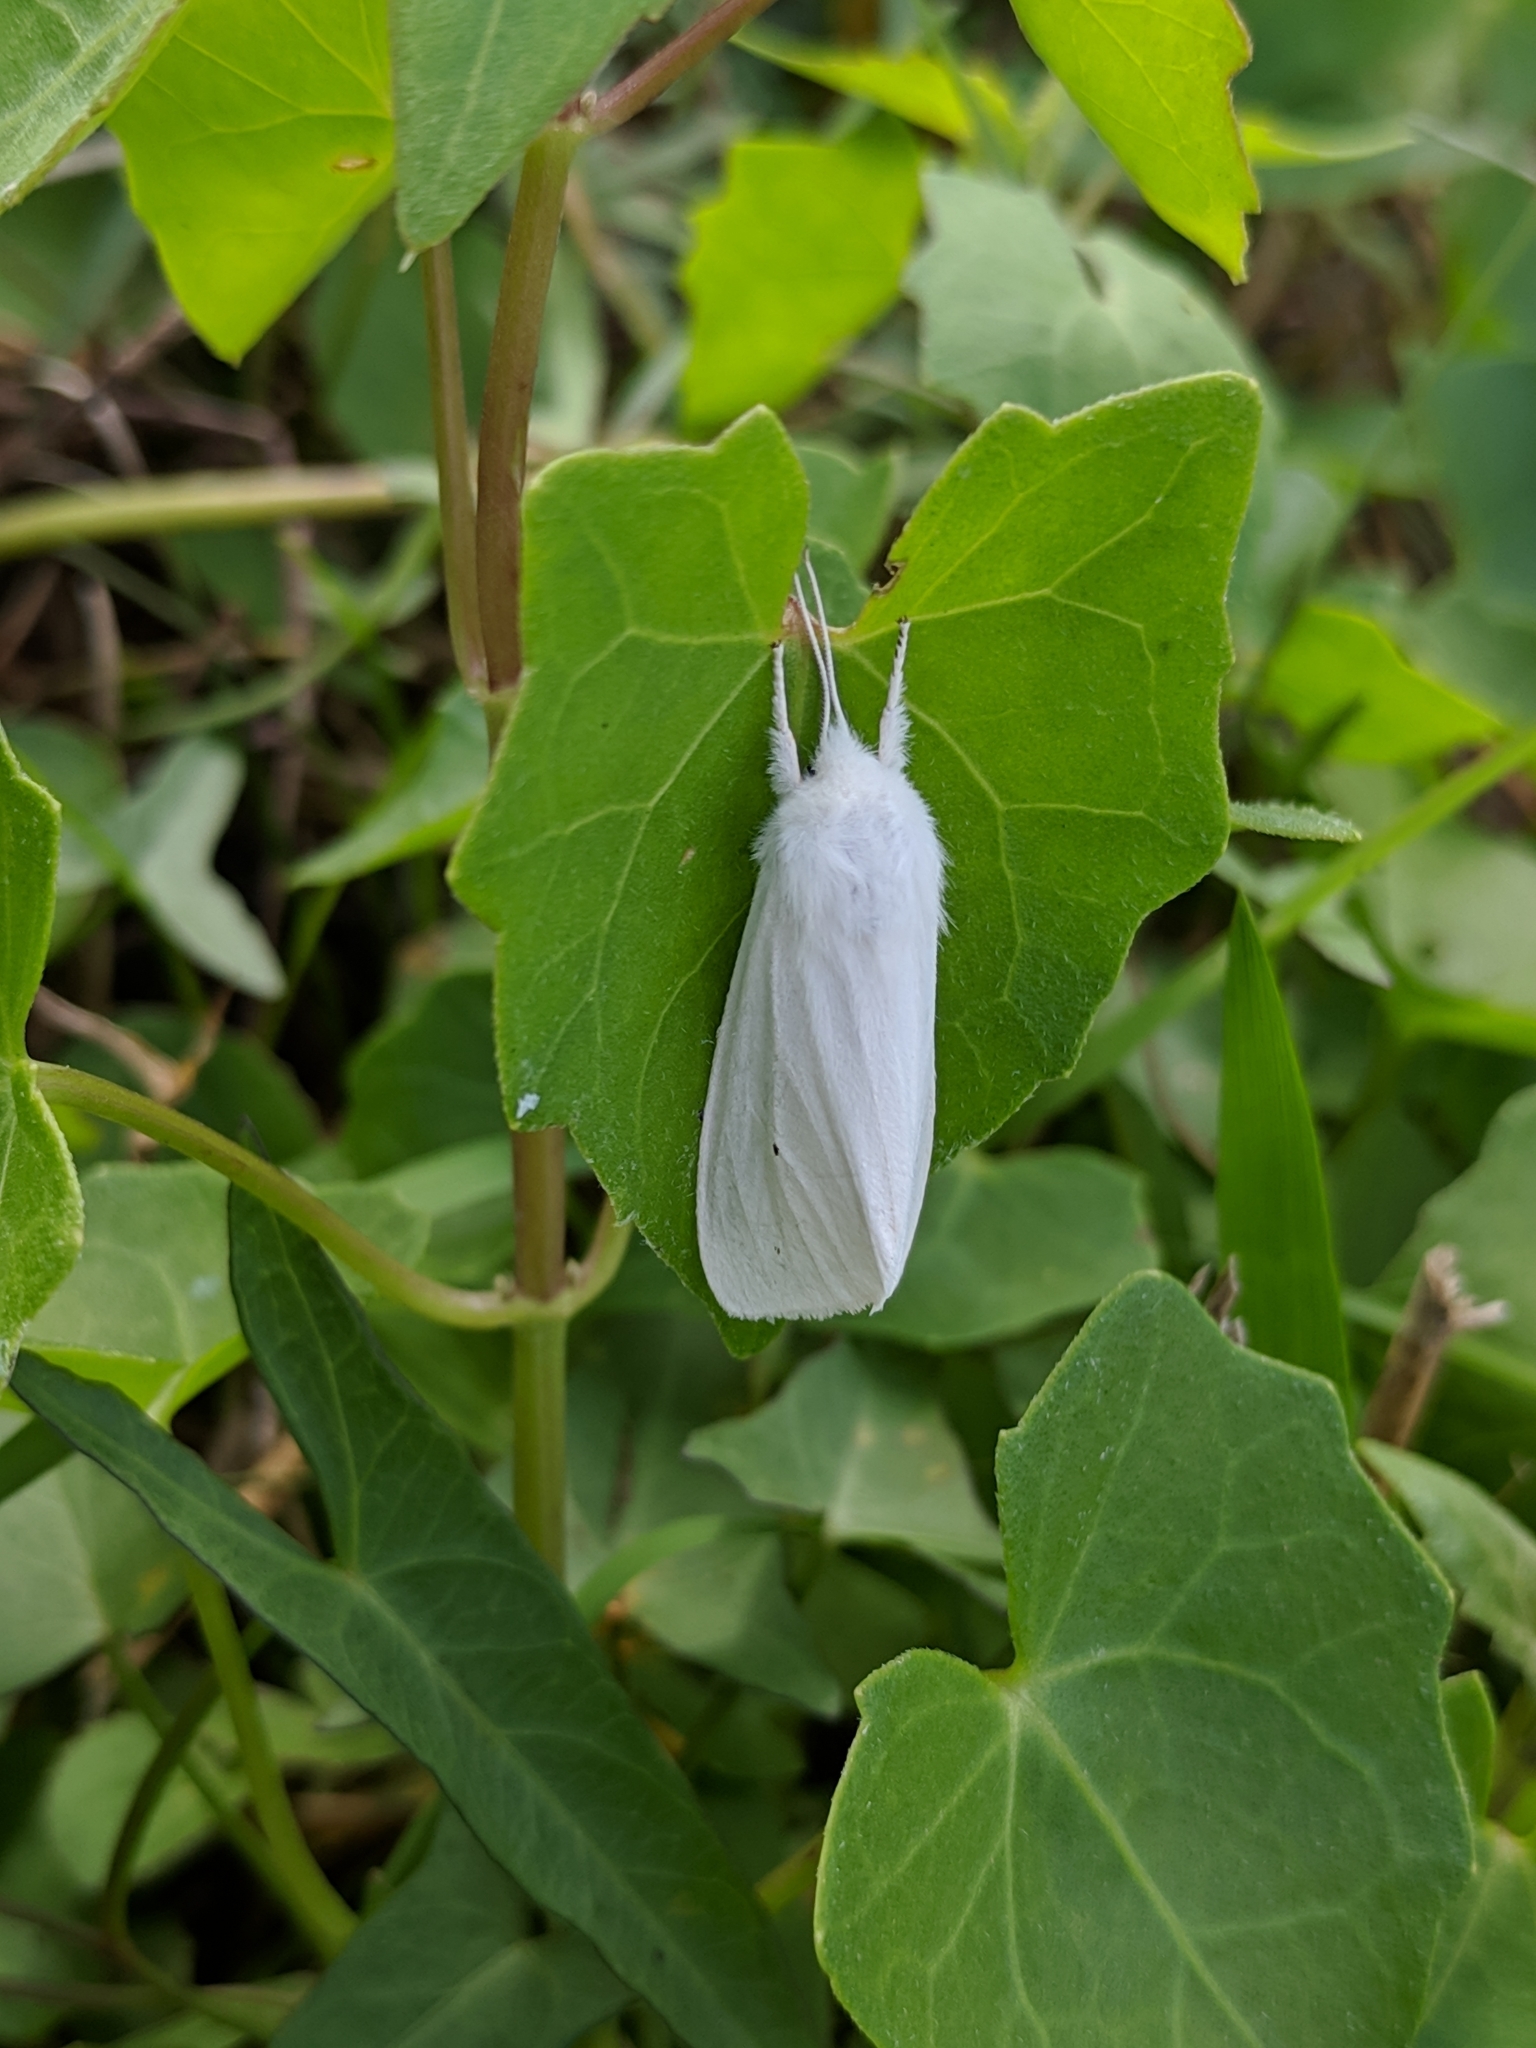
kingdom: Animalia
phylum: Arthropoda
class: Insecta
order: Lepidoptera
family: Erebidae
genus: Spilosoma
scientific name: Spilosoma virginica
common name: Virginia tiger moth
